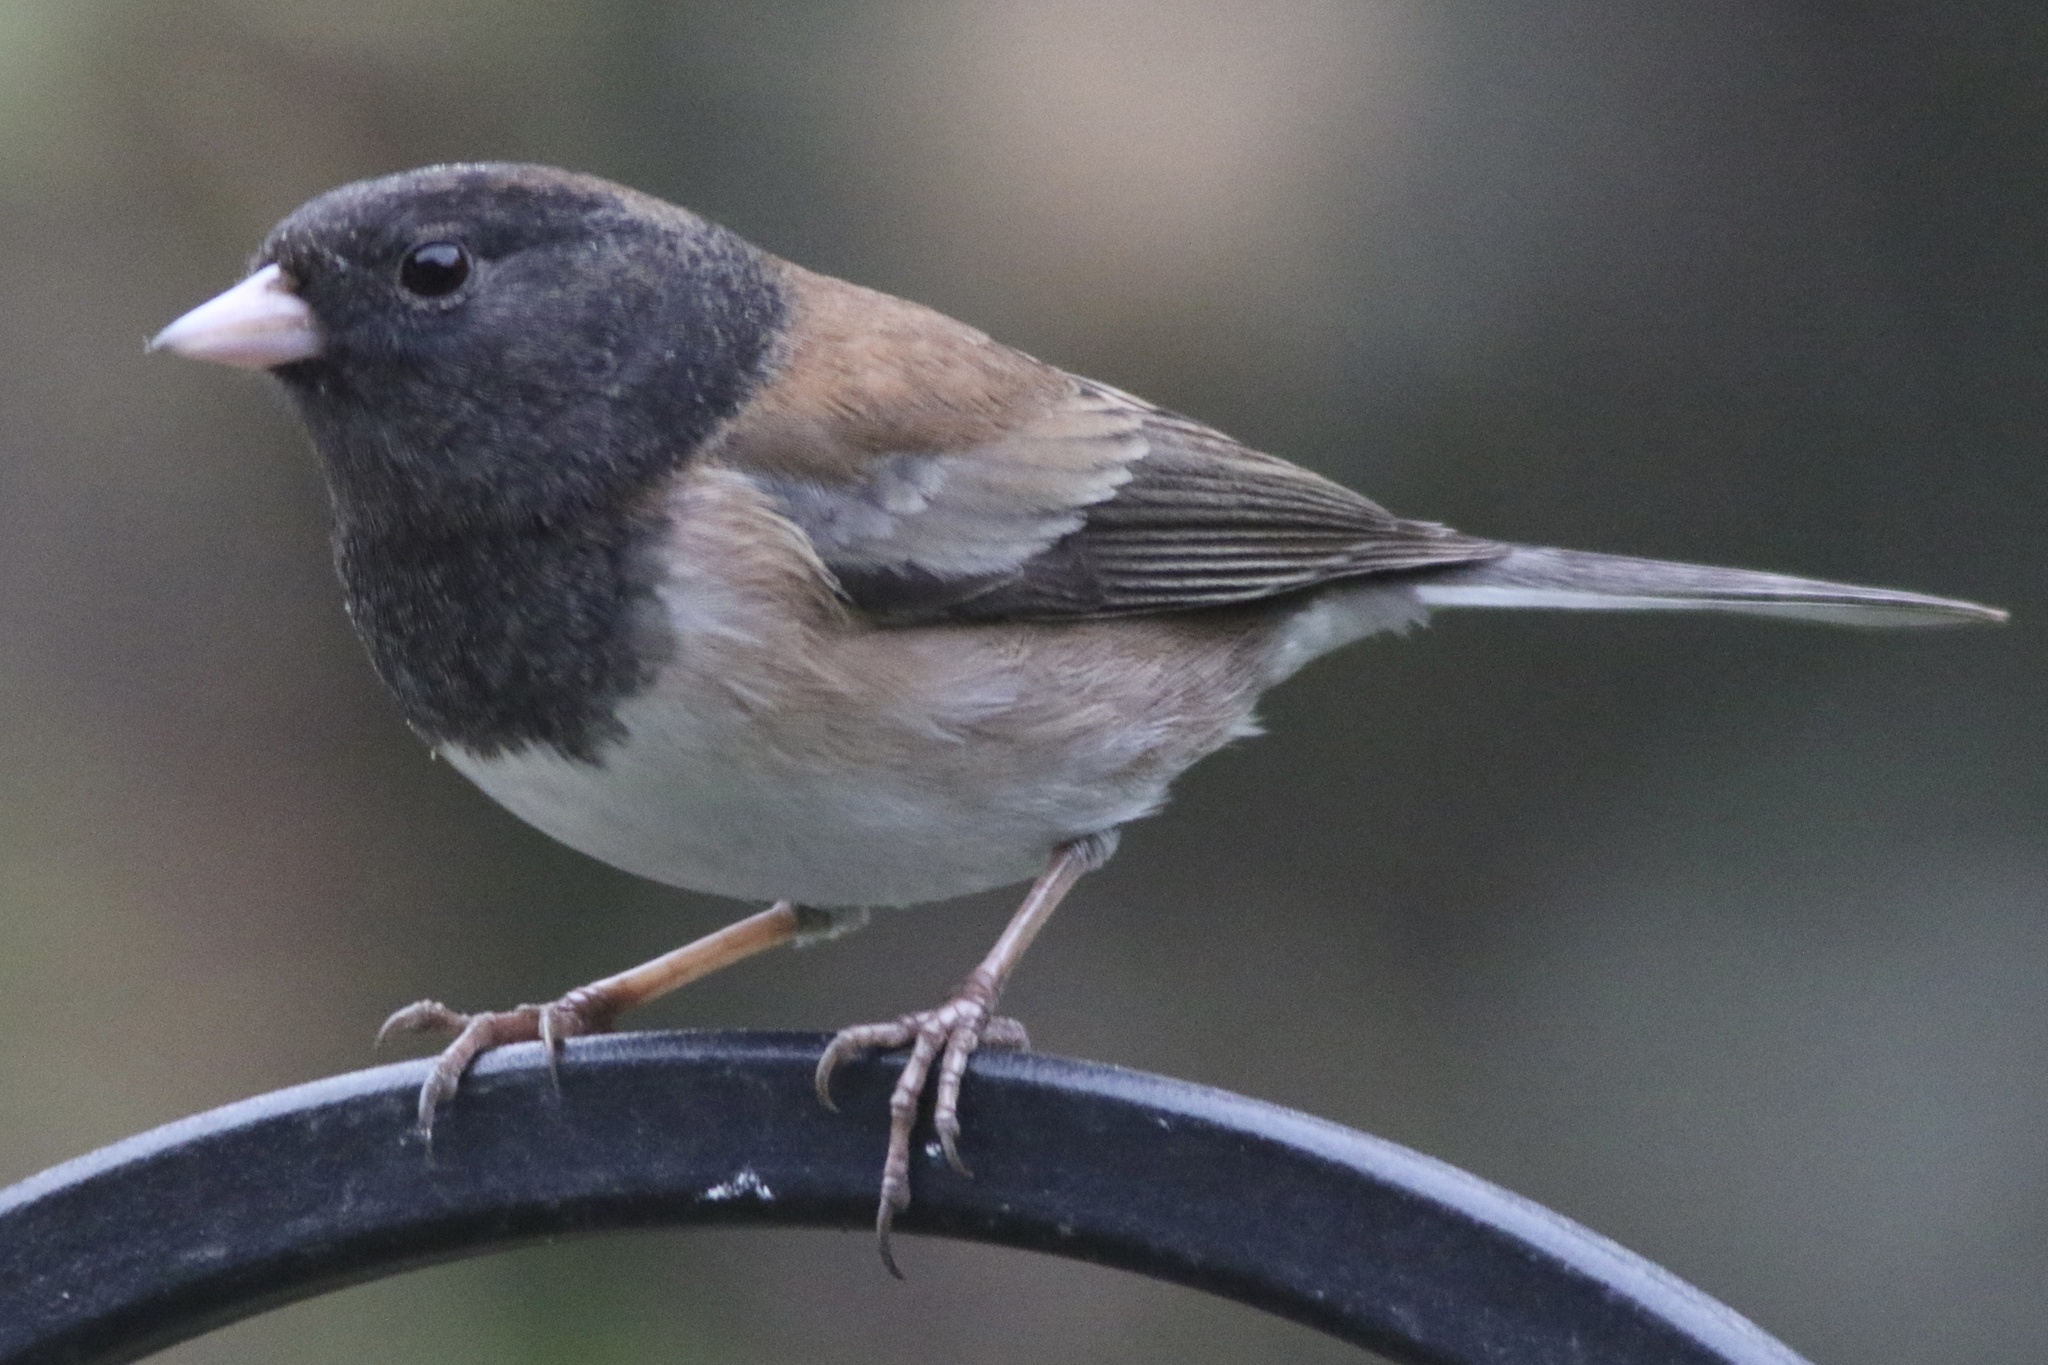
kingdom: Animalia
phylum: Chordata
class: Aves
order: Passeriformes
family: Passerellidae
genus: Junco
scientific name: Junco hyemalis
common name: Dark-eyed junco
